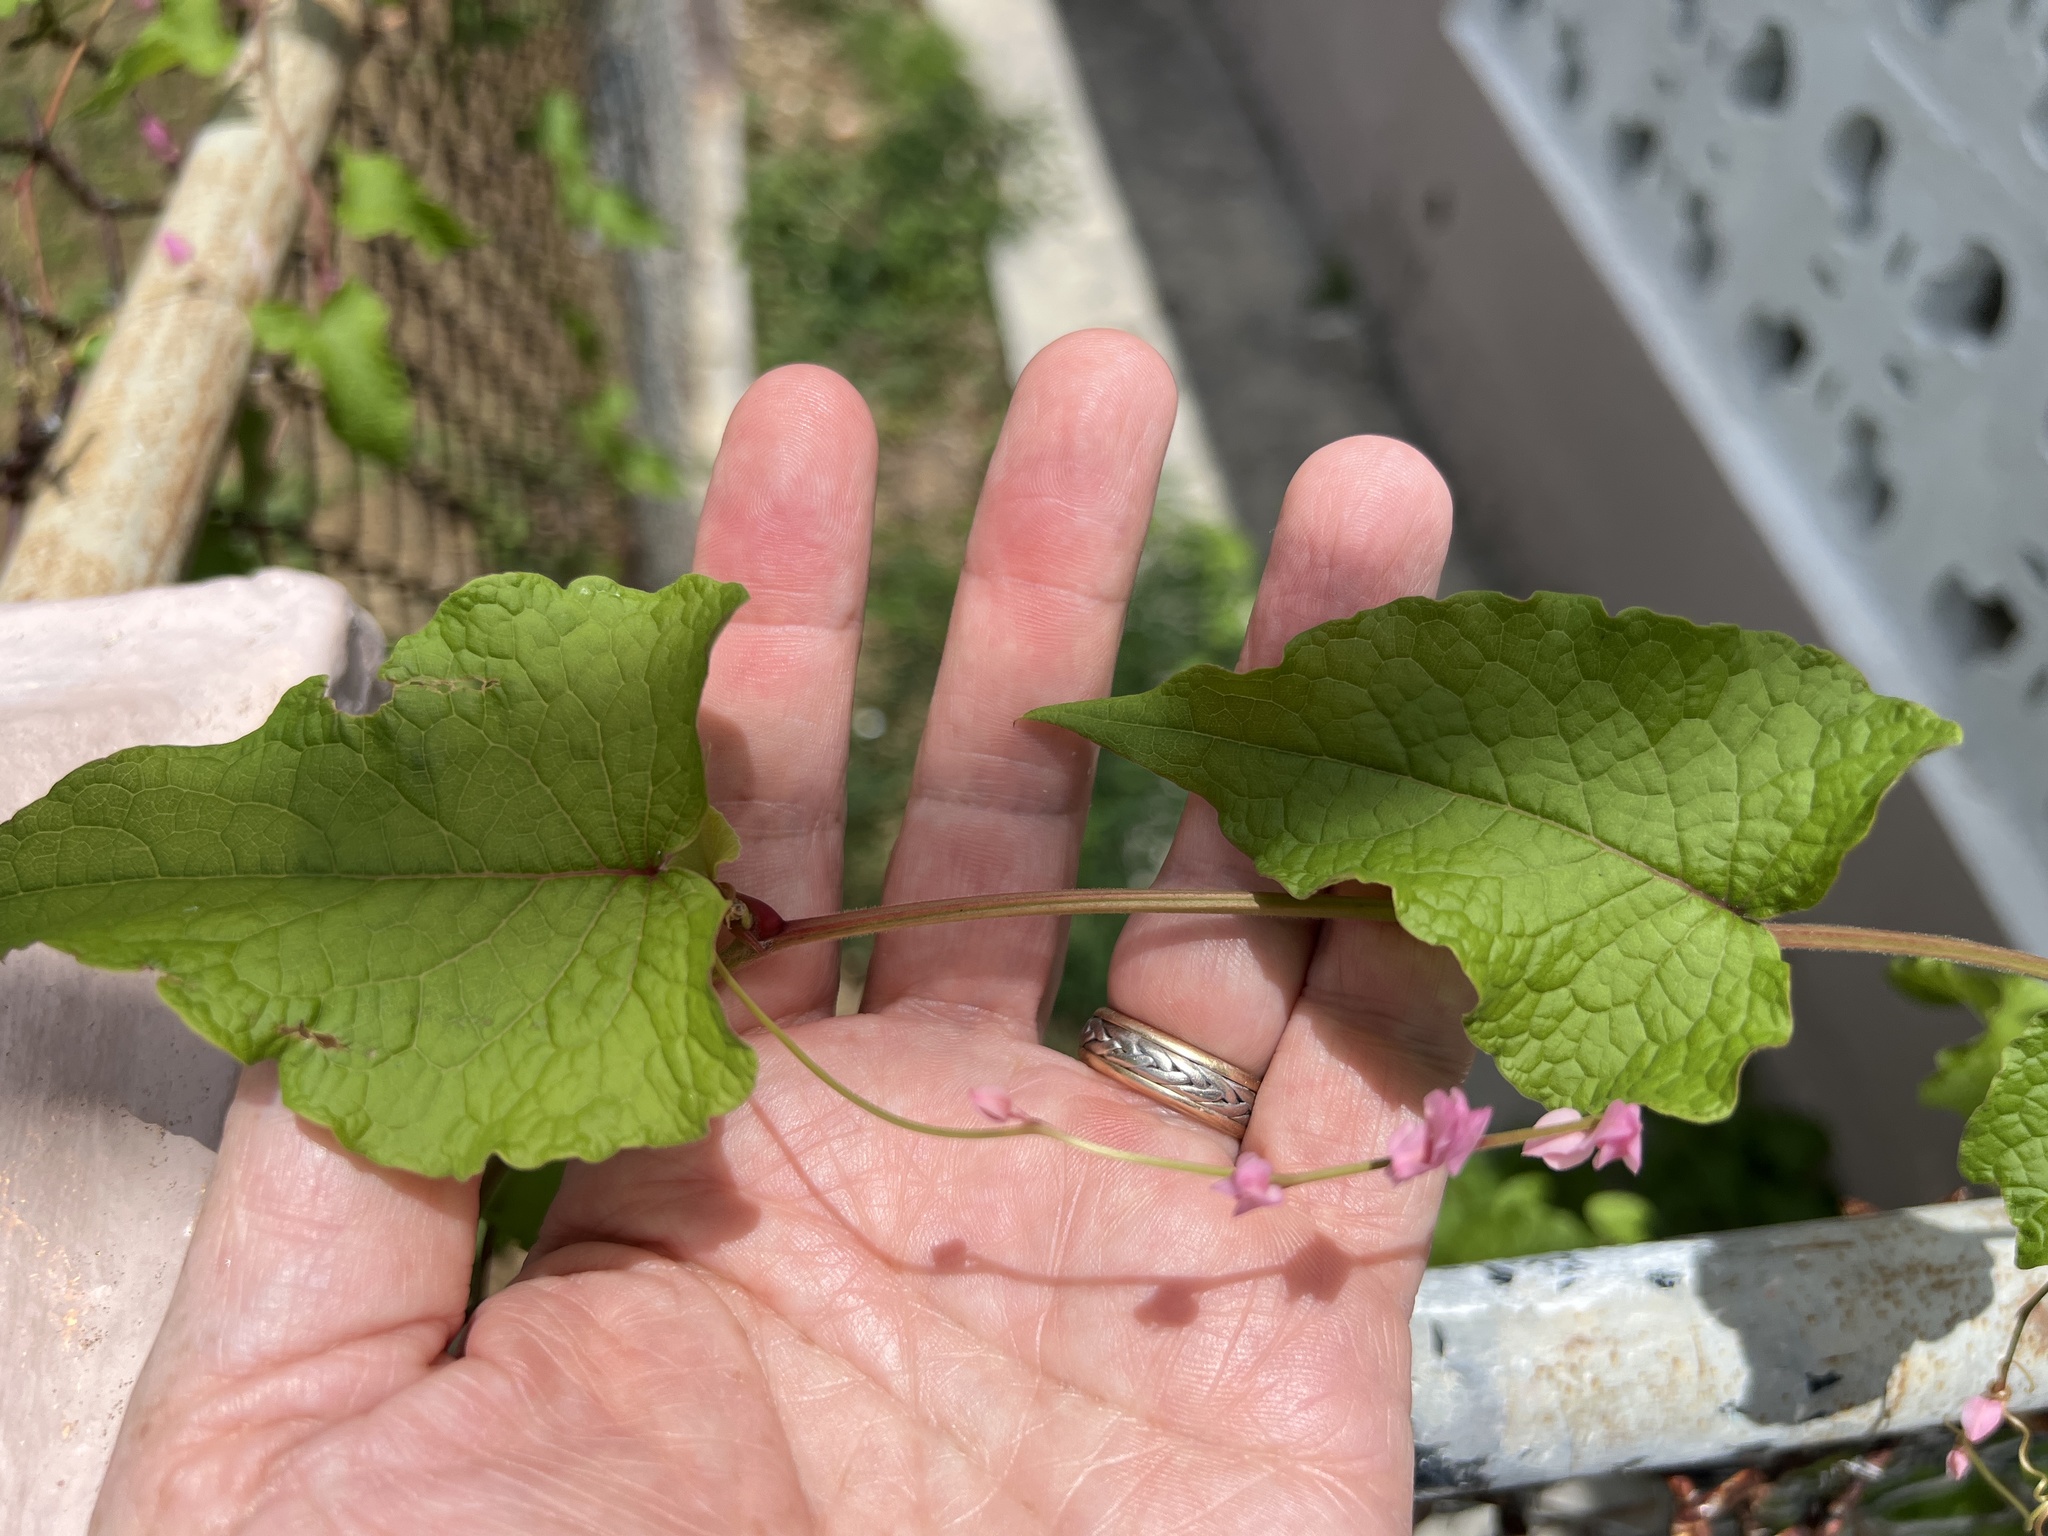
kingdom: Plantae
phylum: Tracheophyta
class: Magnoliopsida
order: Caryophyllales
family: Polygonaceae
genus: Antigonon
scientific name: Antigonon leptopus
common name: Coral vine
